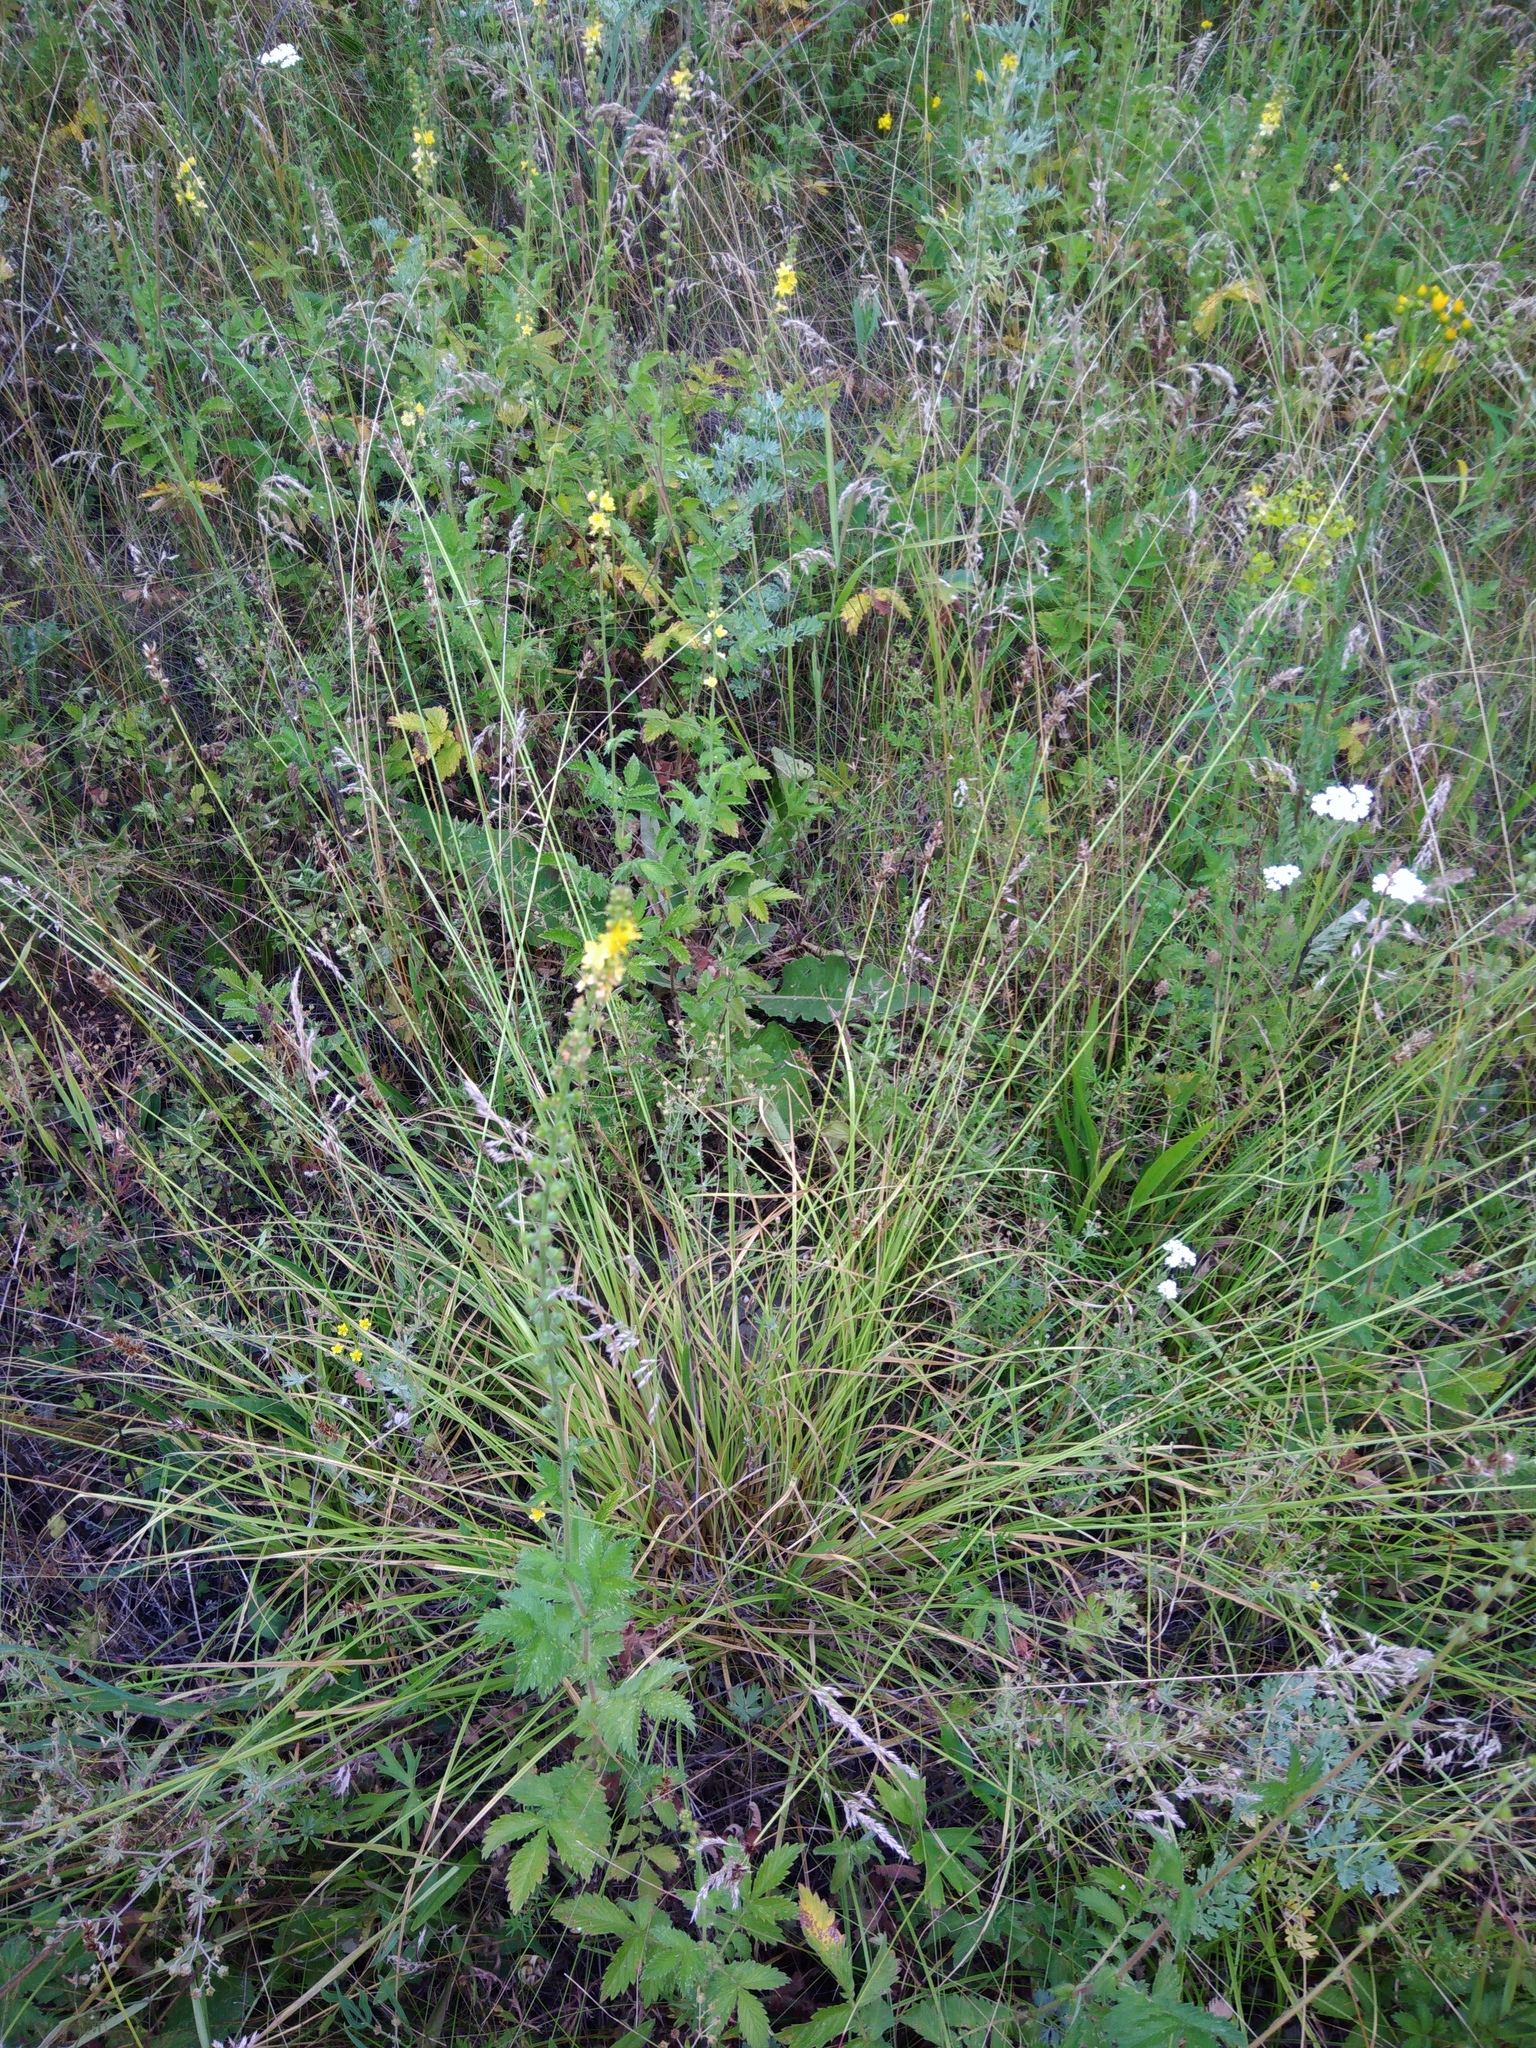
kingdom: Plantae
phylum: Tracheophyta
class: Liliopsida
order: Poales
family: Cyperaceae
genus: Carex
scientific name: Carex spicata
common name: Spiked sedge
